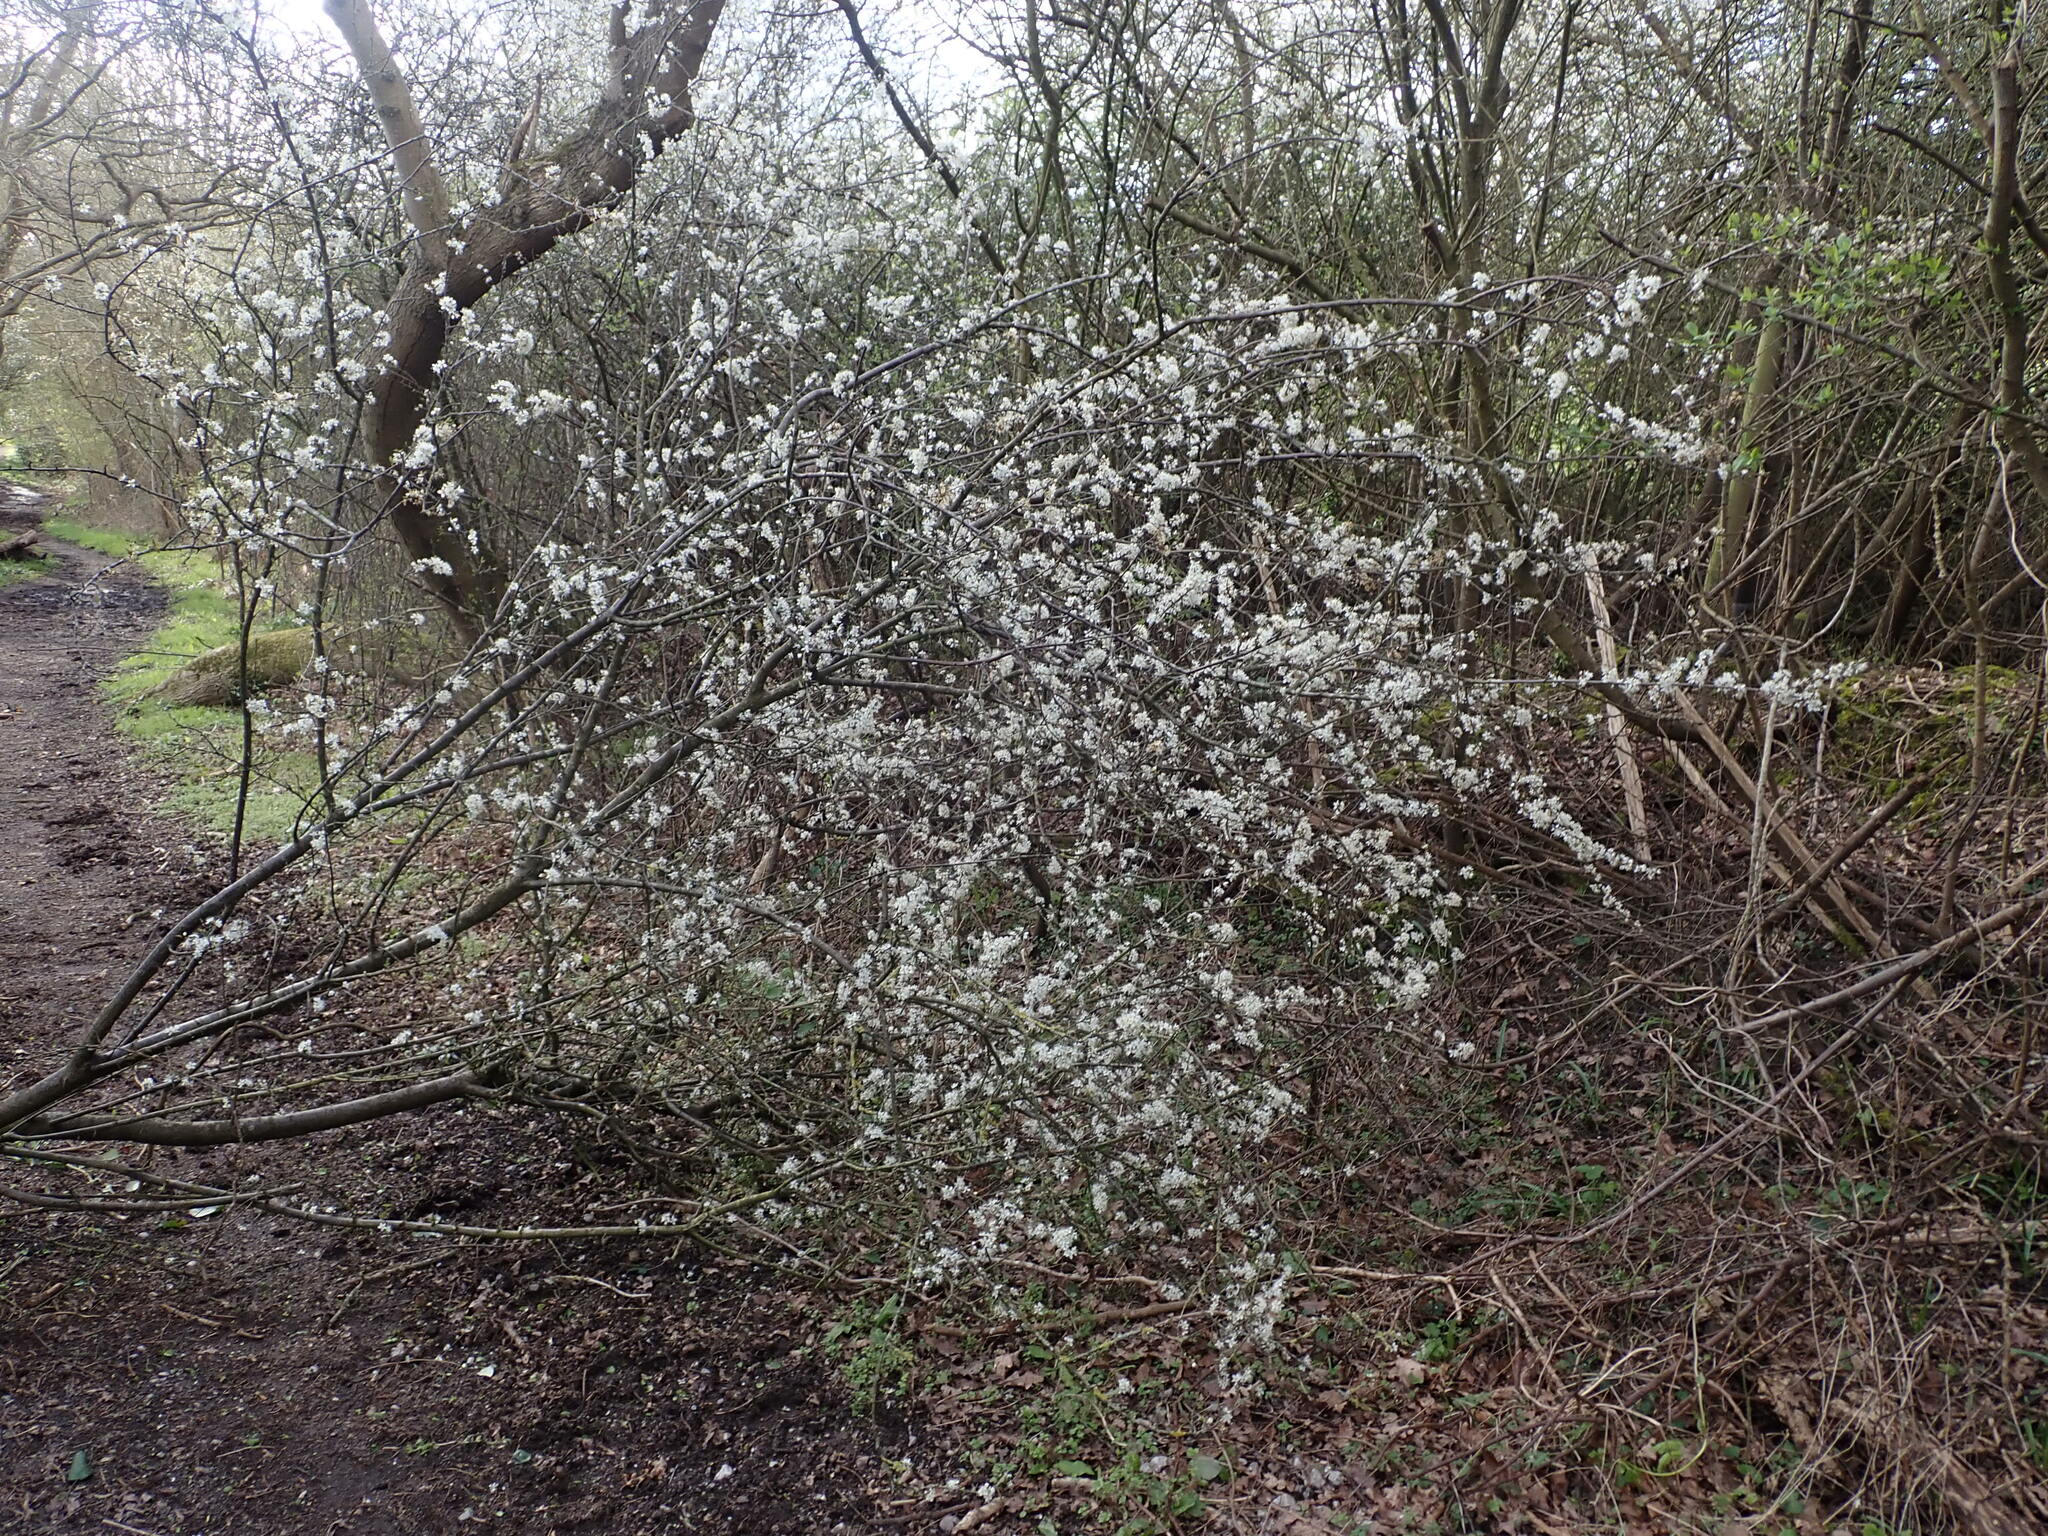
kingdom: Plantae
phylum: Tracheophyta
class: Magnoliopsida
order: Rosales
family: Rosaceae
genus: Prunus
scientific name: Prunus spinosa
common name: Blackthorn
